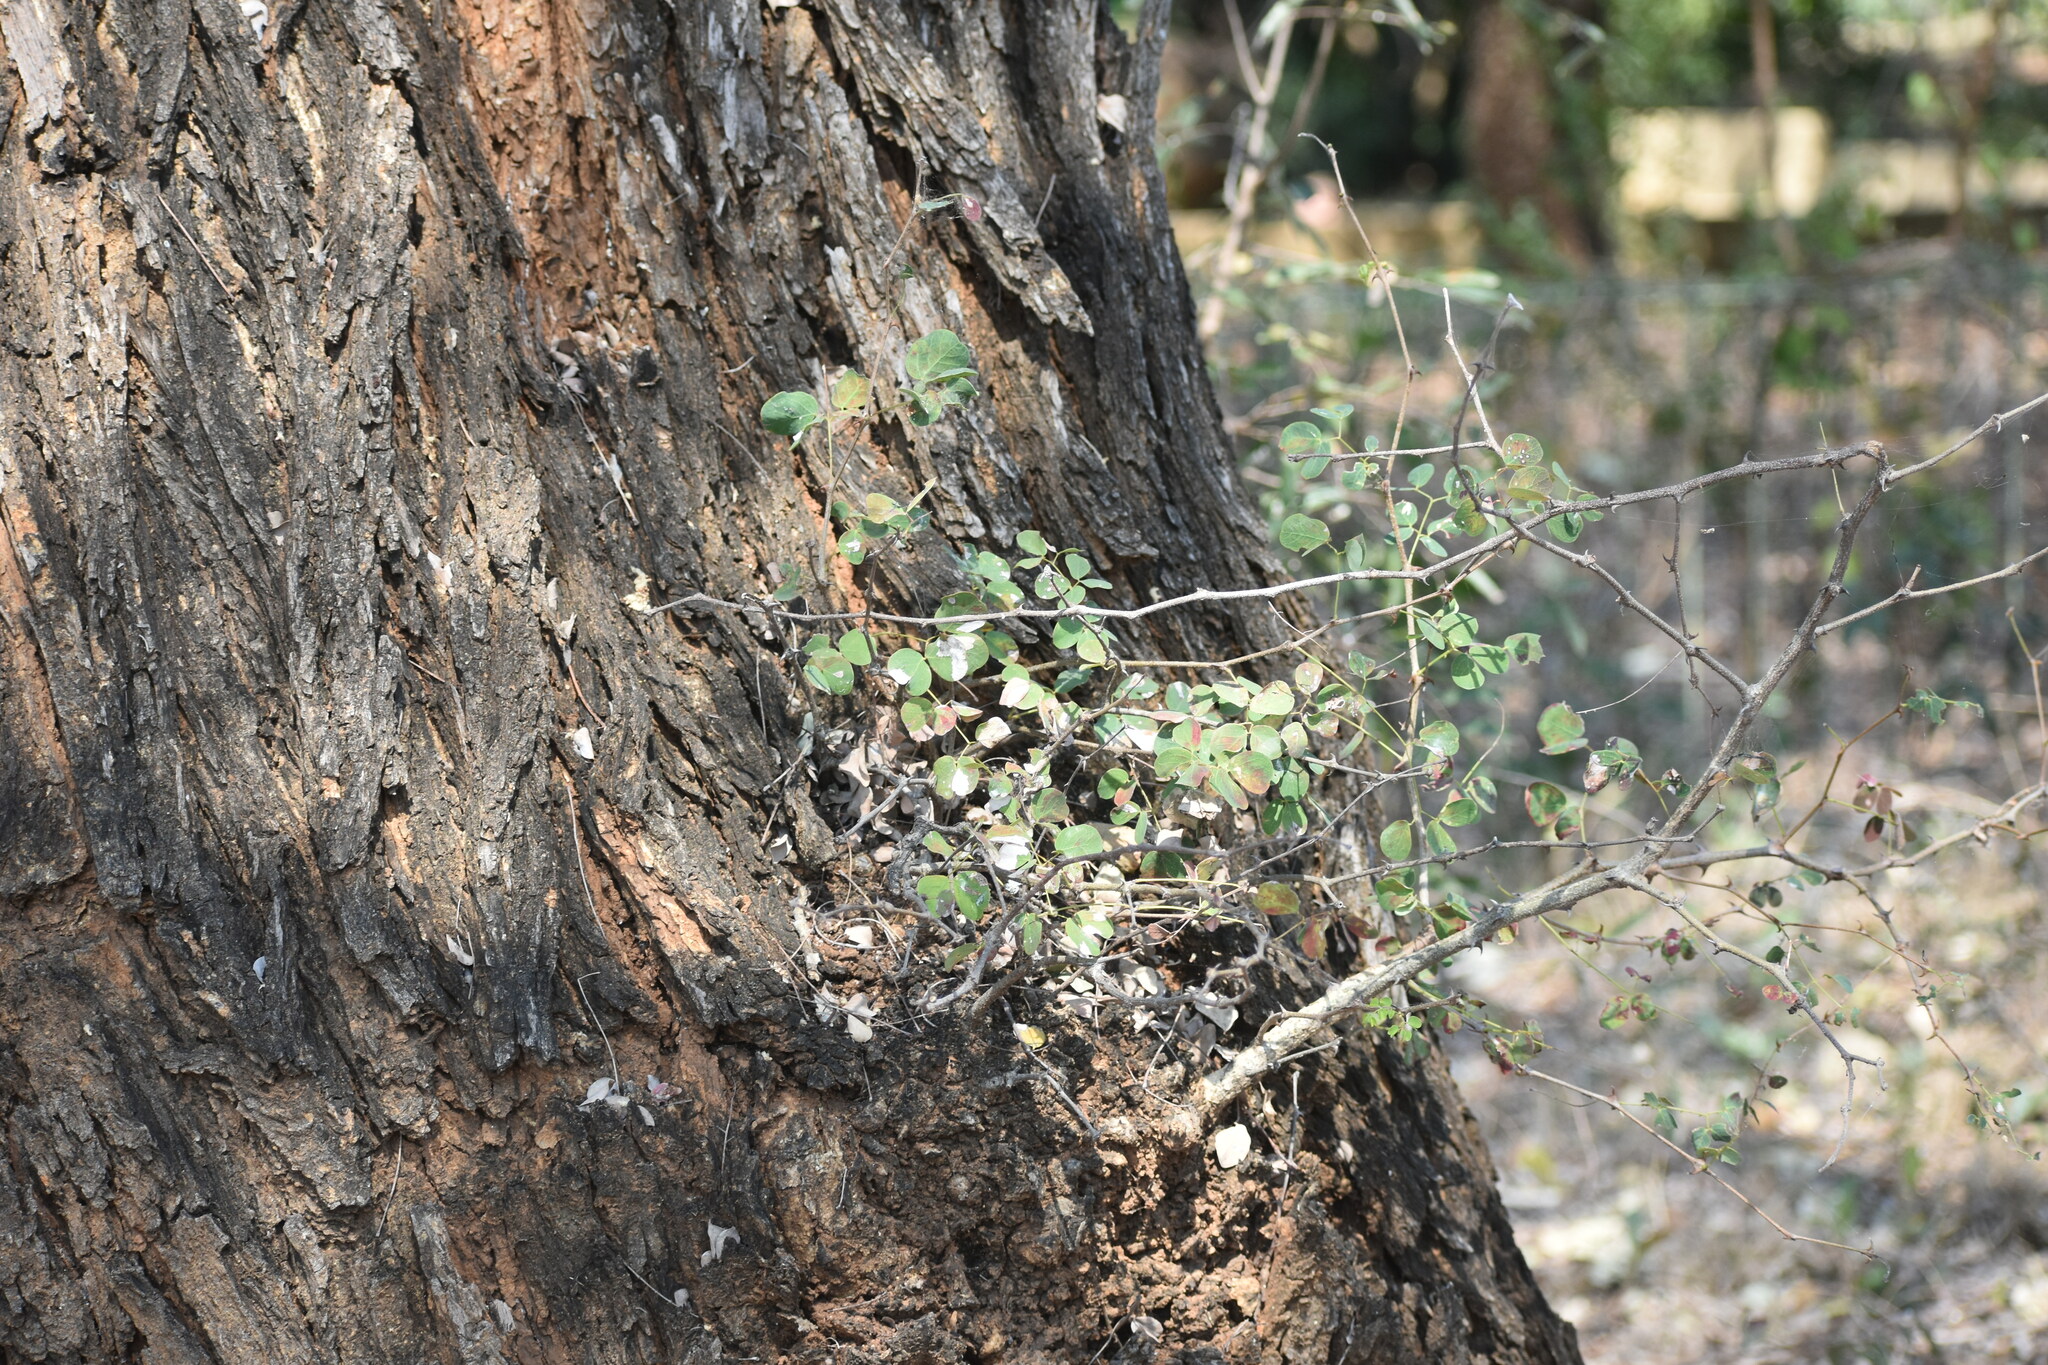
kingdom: Plantae
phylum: Tracheophyta
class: Magnoliopsida
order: Fabales
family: Fabaceae
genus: Senegalia
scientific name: Senegalia nigrescens
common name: Knobthorn
